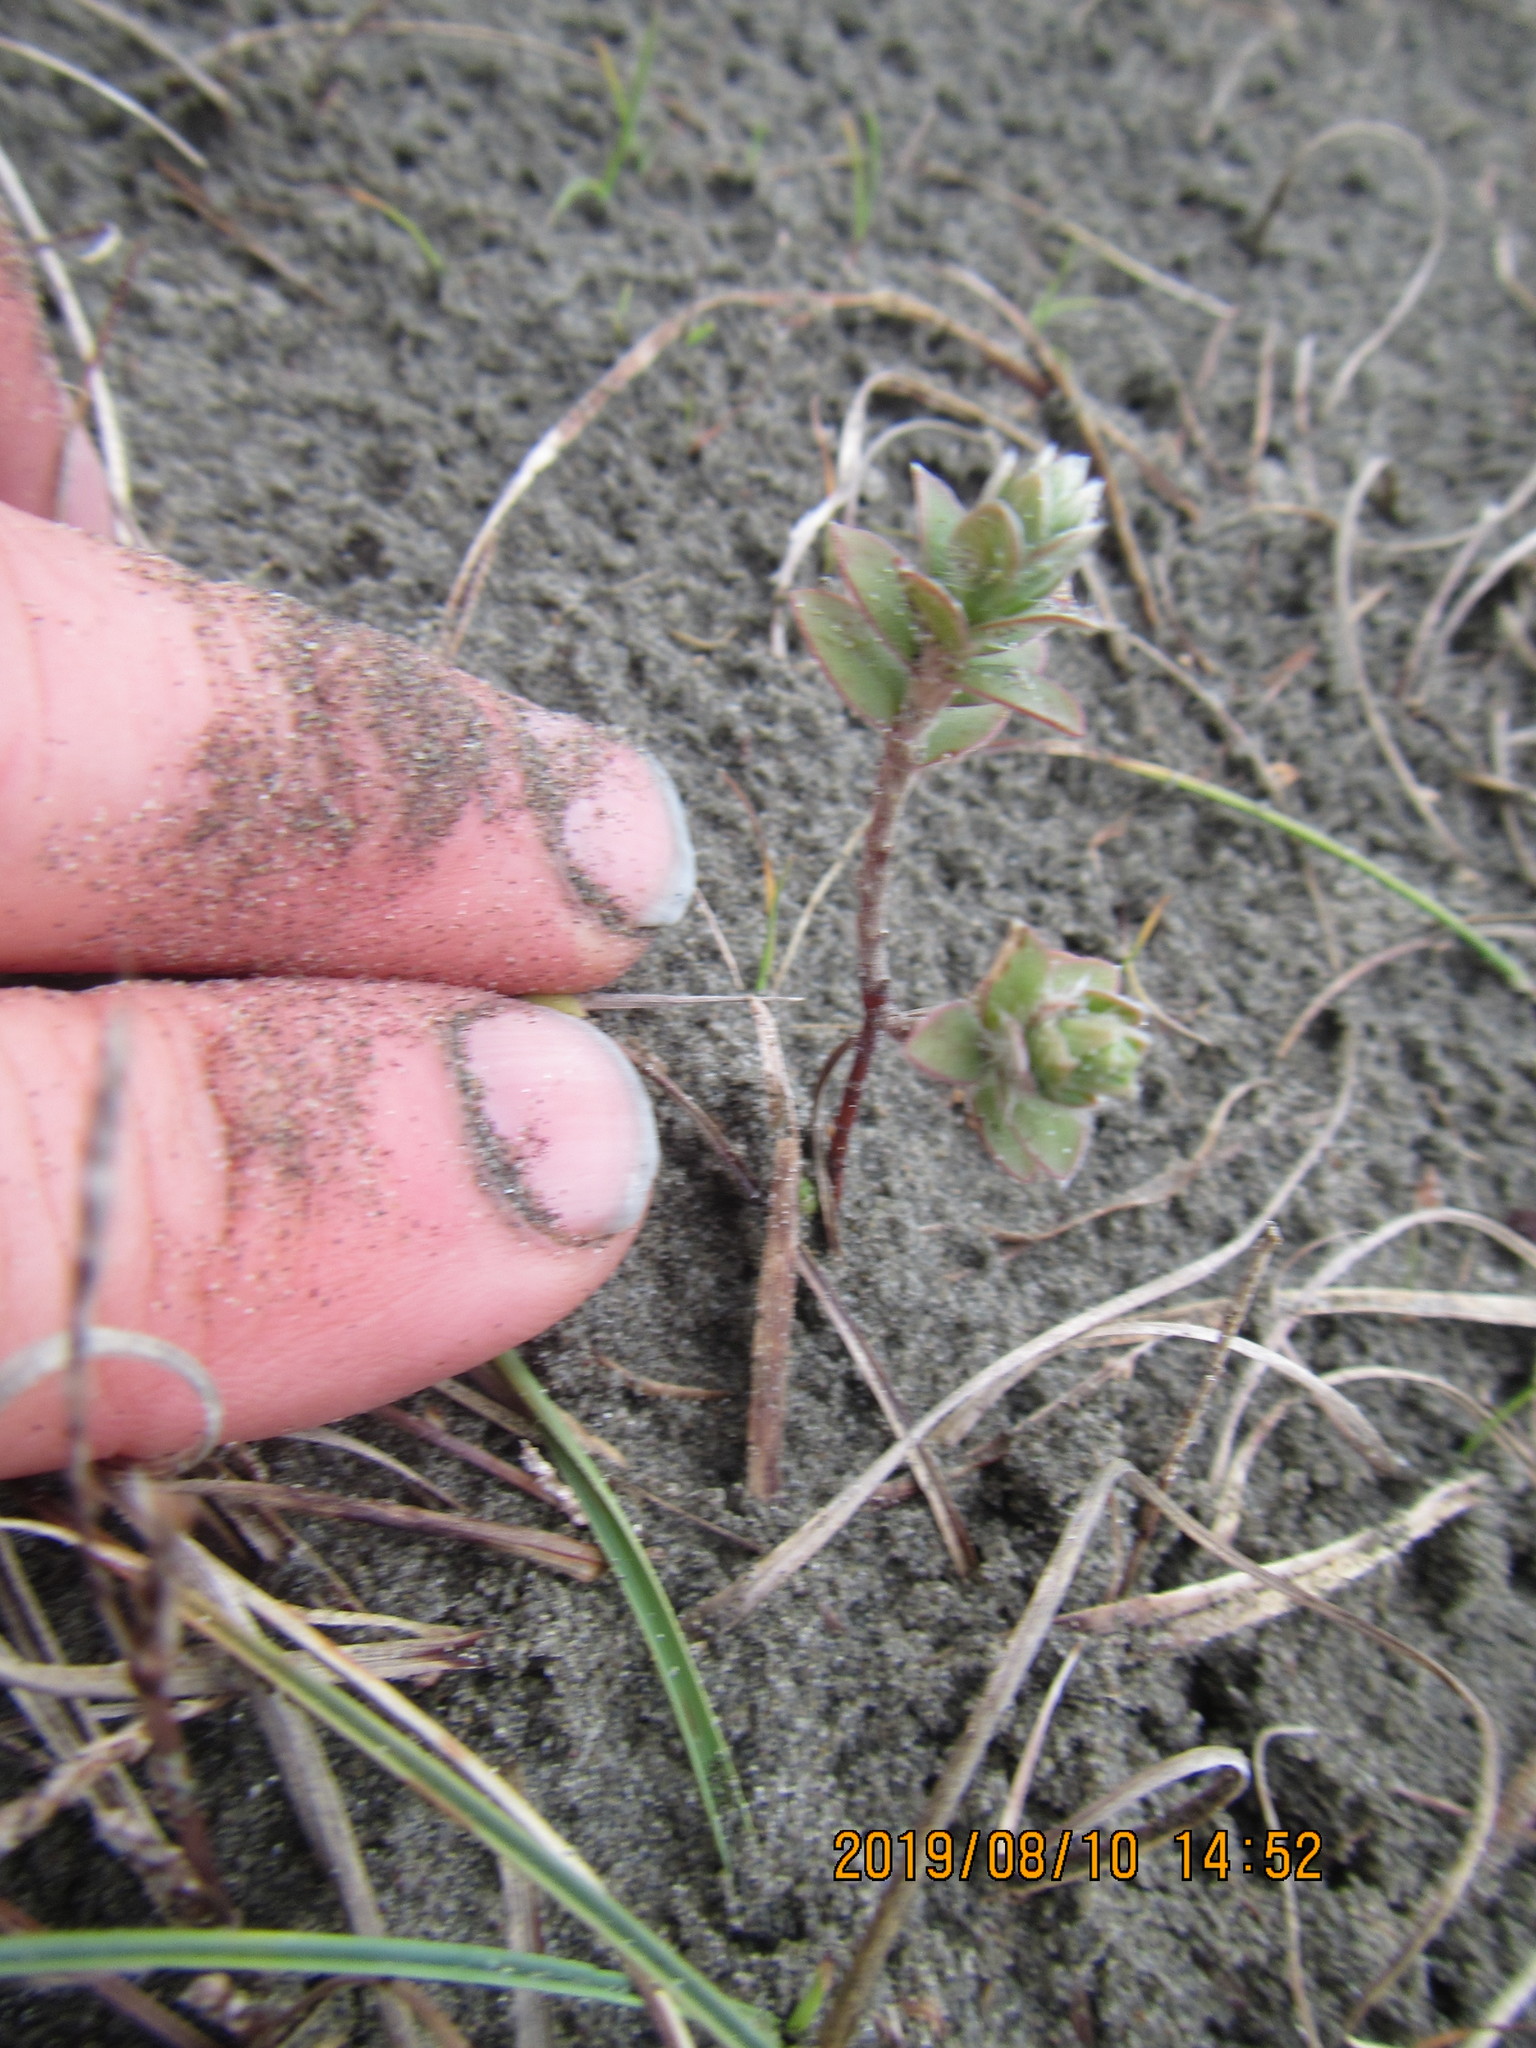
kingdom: Plantae
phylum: Tracheophyta
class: Magnoliopsida
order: Malvales
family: Thymelaeaceae
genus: Pimelea
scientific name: Pimelea villosa
